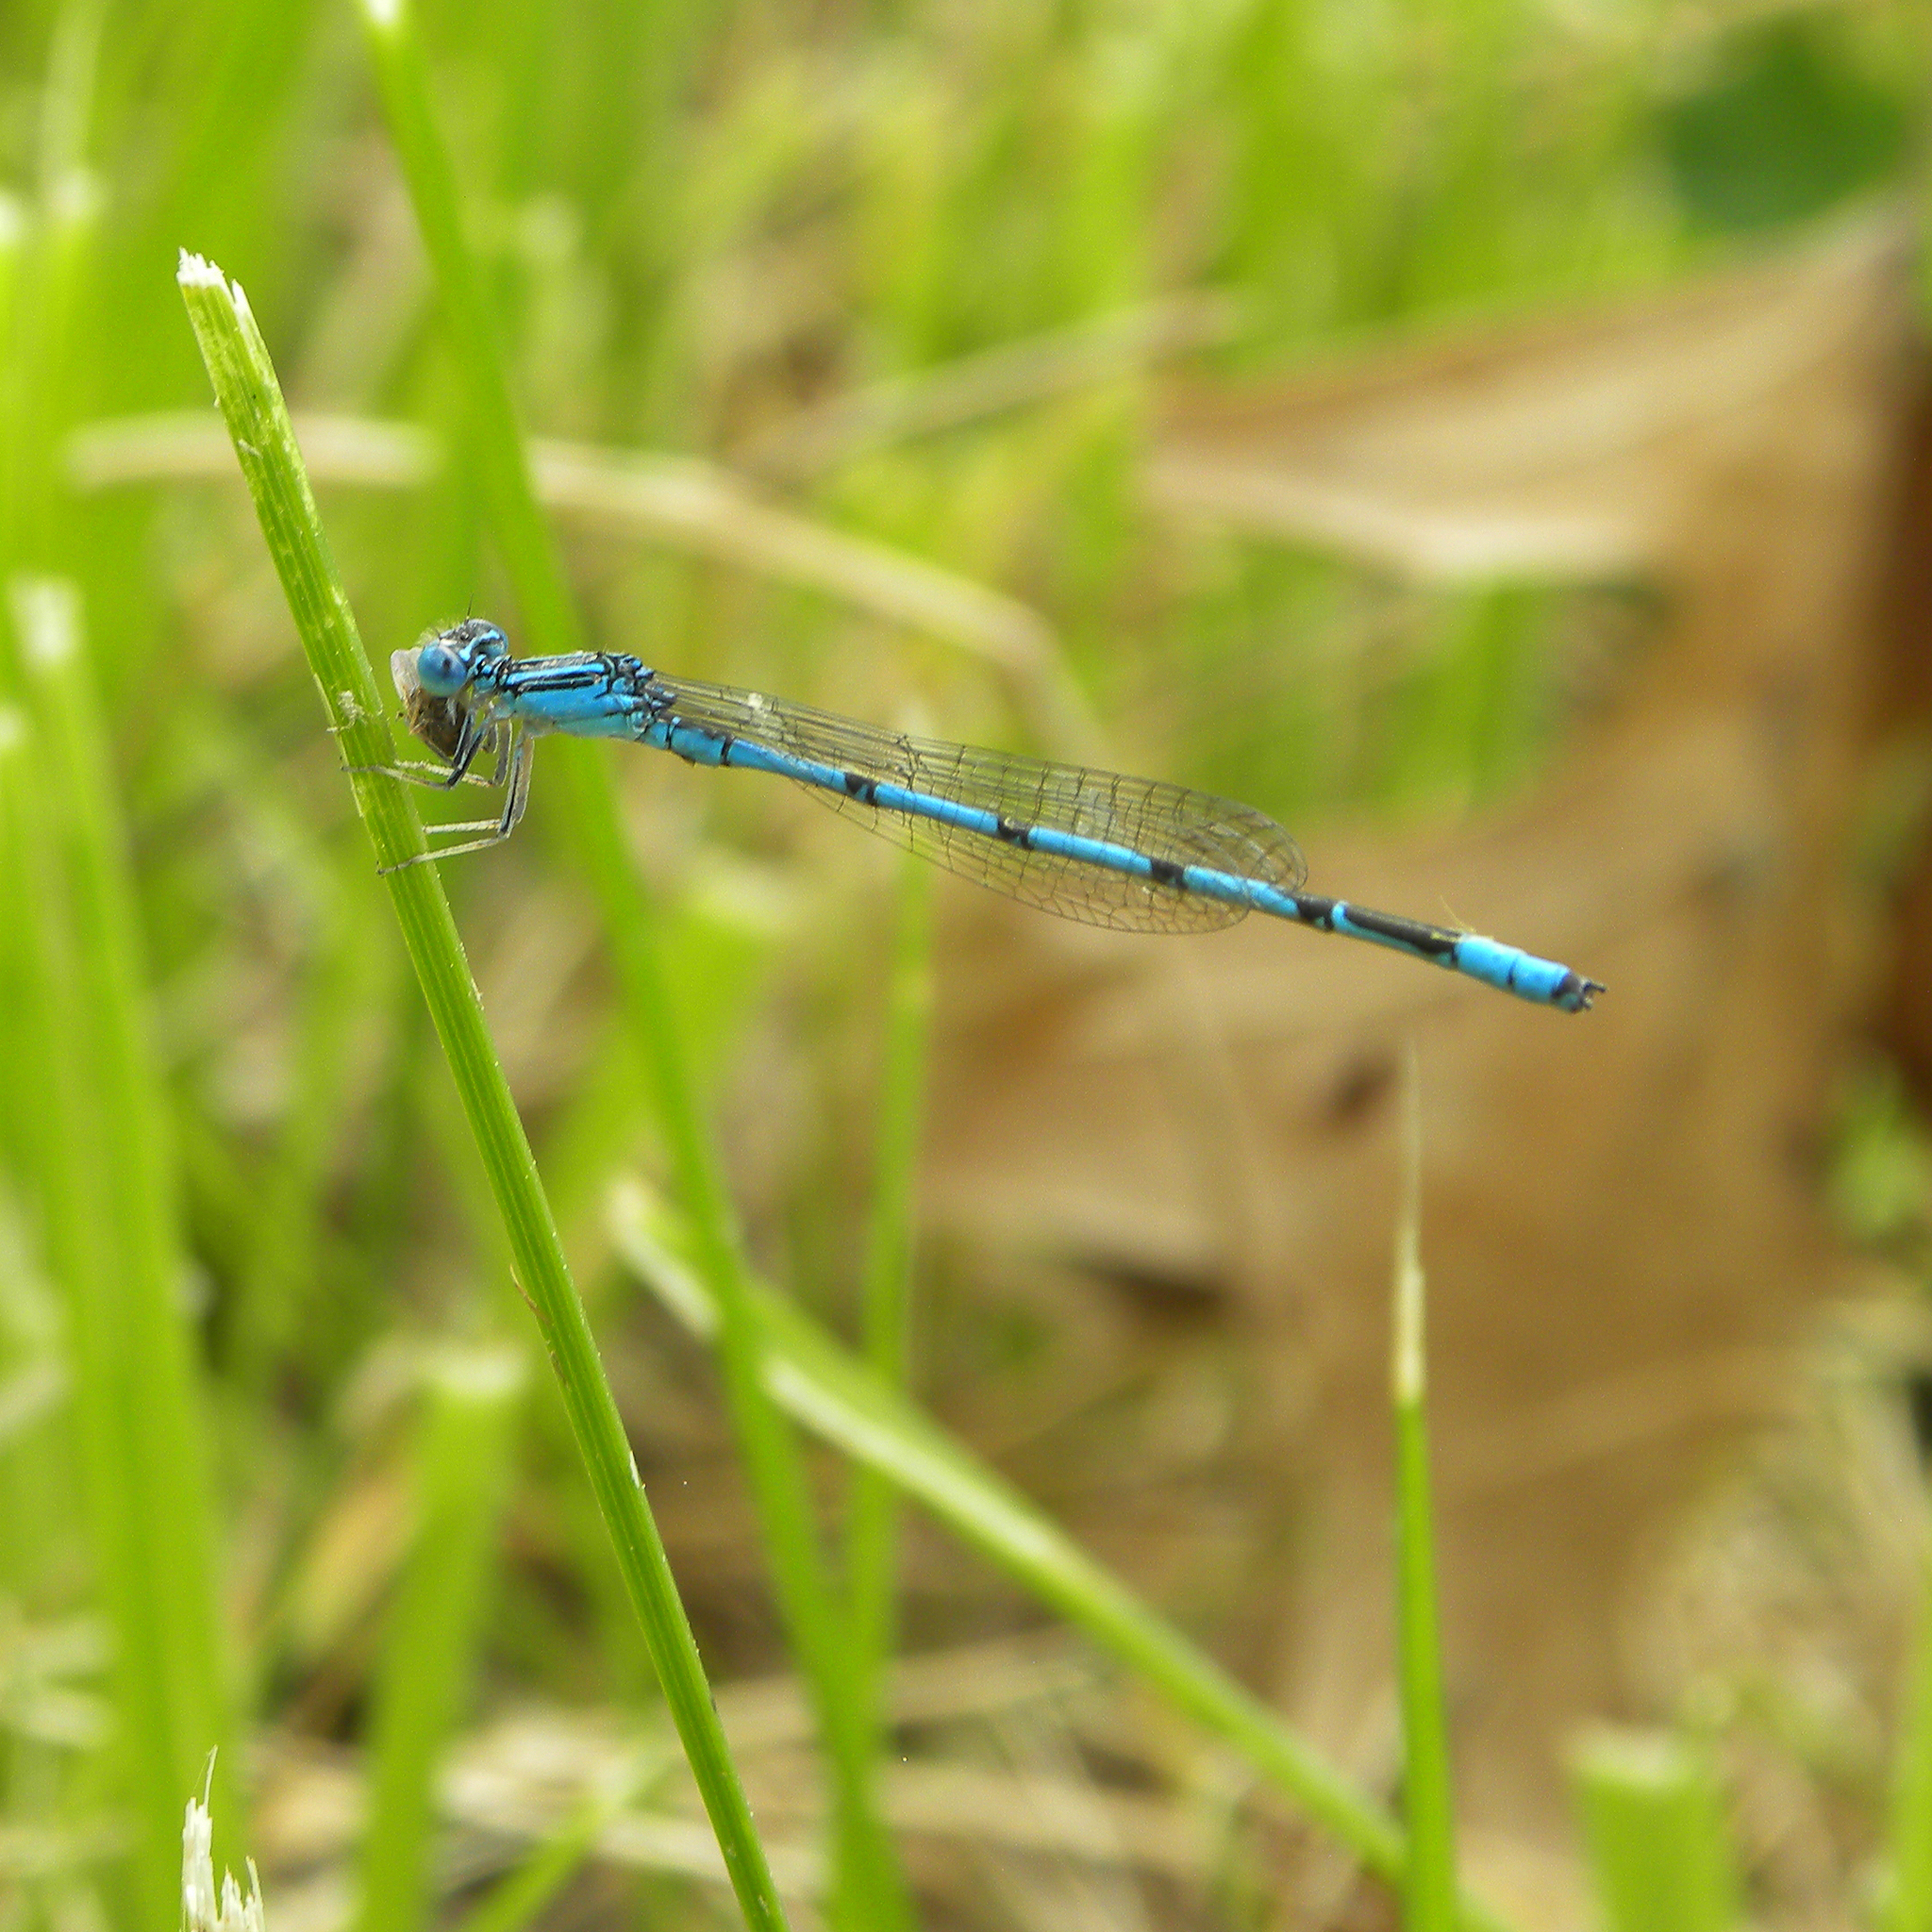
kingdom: Animalia
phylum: Arthropoda
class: Insecta
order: Odonata
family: Coenagrionidae
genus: Enallagma
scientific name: Enallagma basidens
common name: Double-striped bluet
